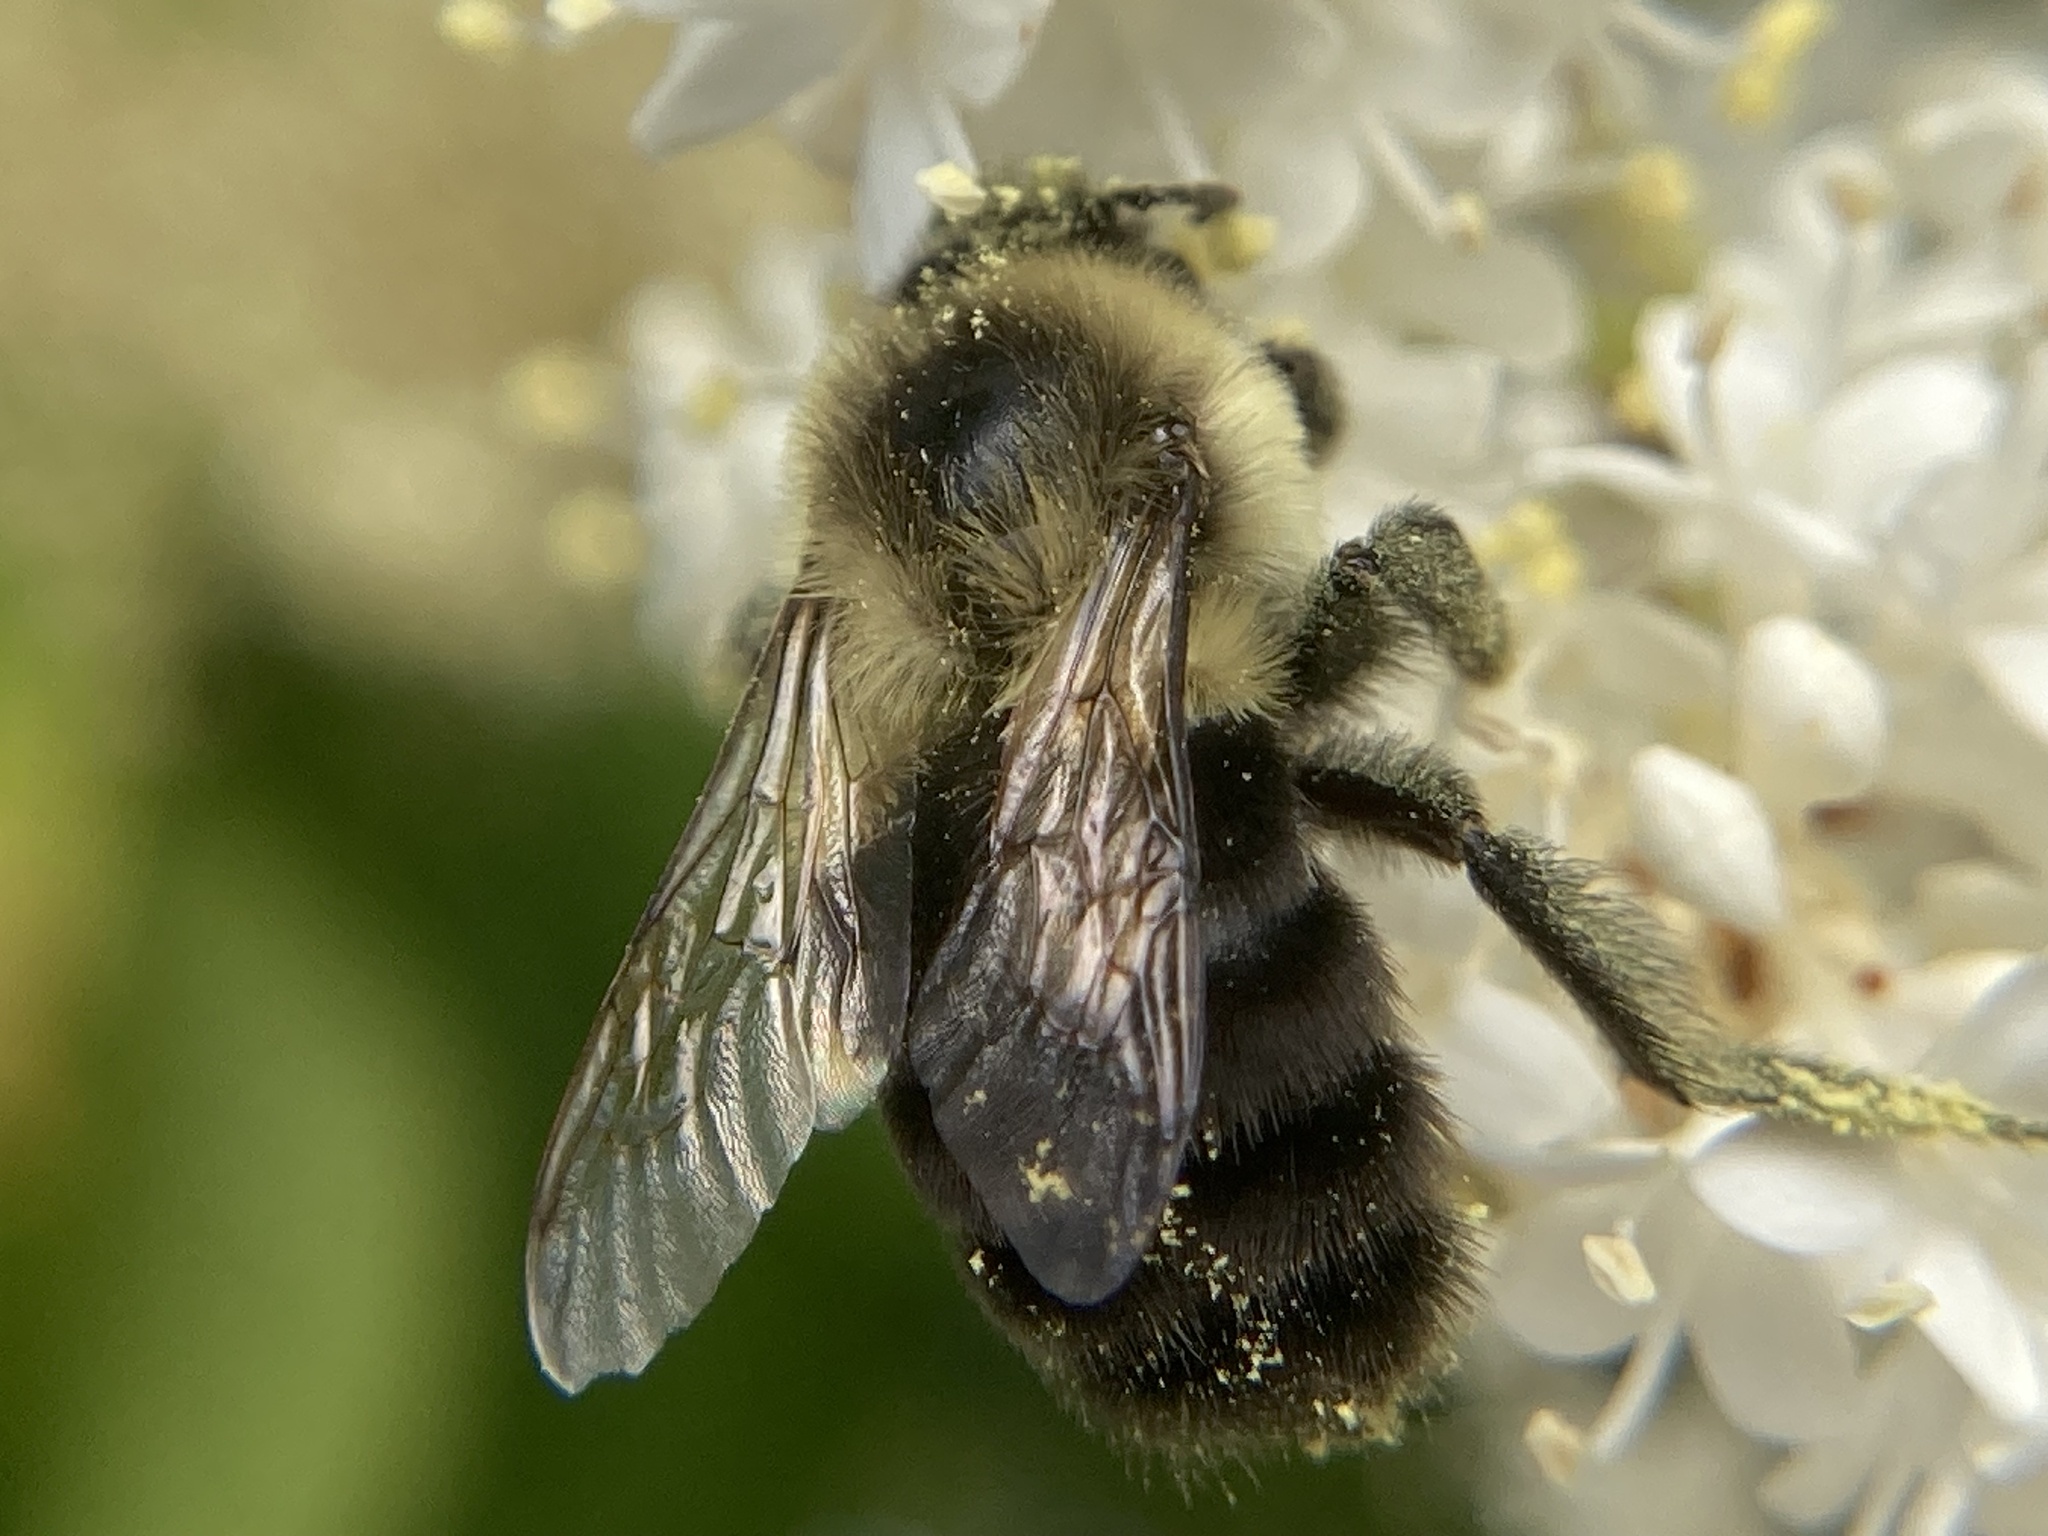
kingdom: Animalia
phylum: Arthropoda
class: Insecta
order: Hymenoptera
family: Apidae
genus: Bombus
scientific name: Bombus impatiens
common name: Common eastern bumble bee
